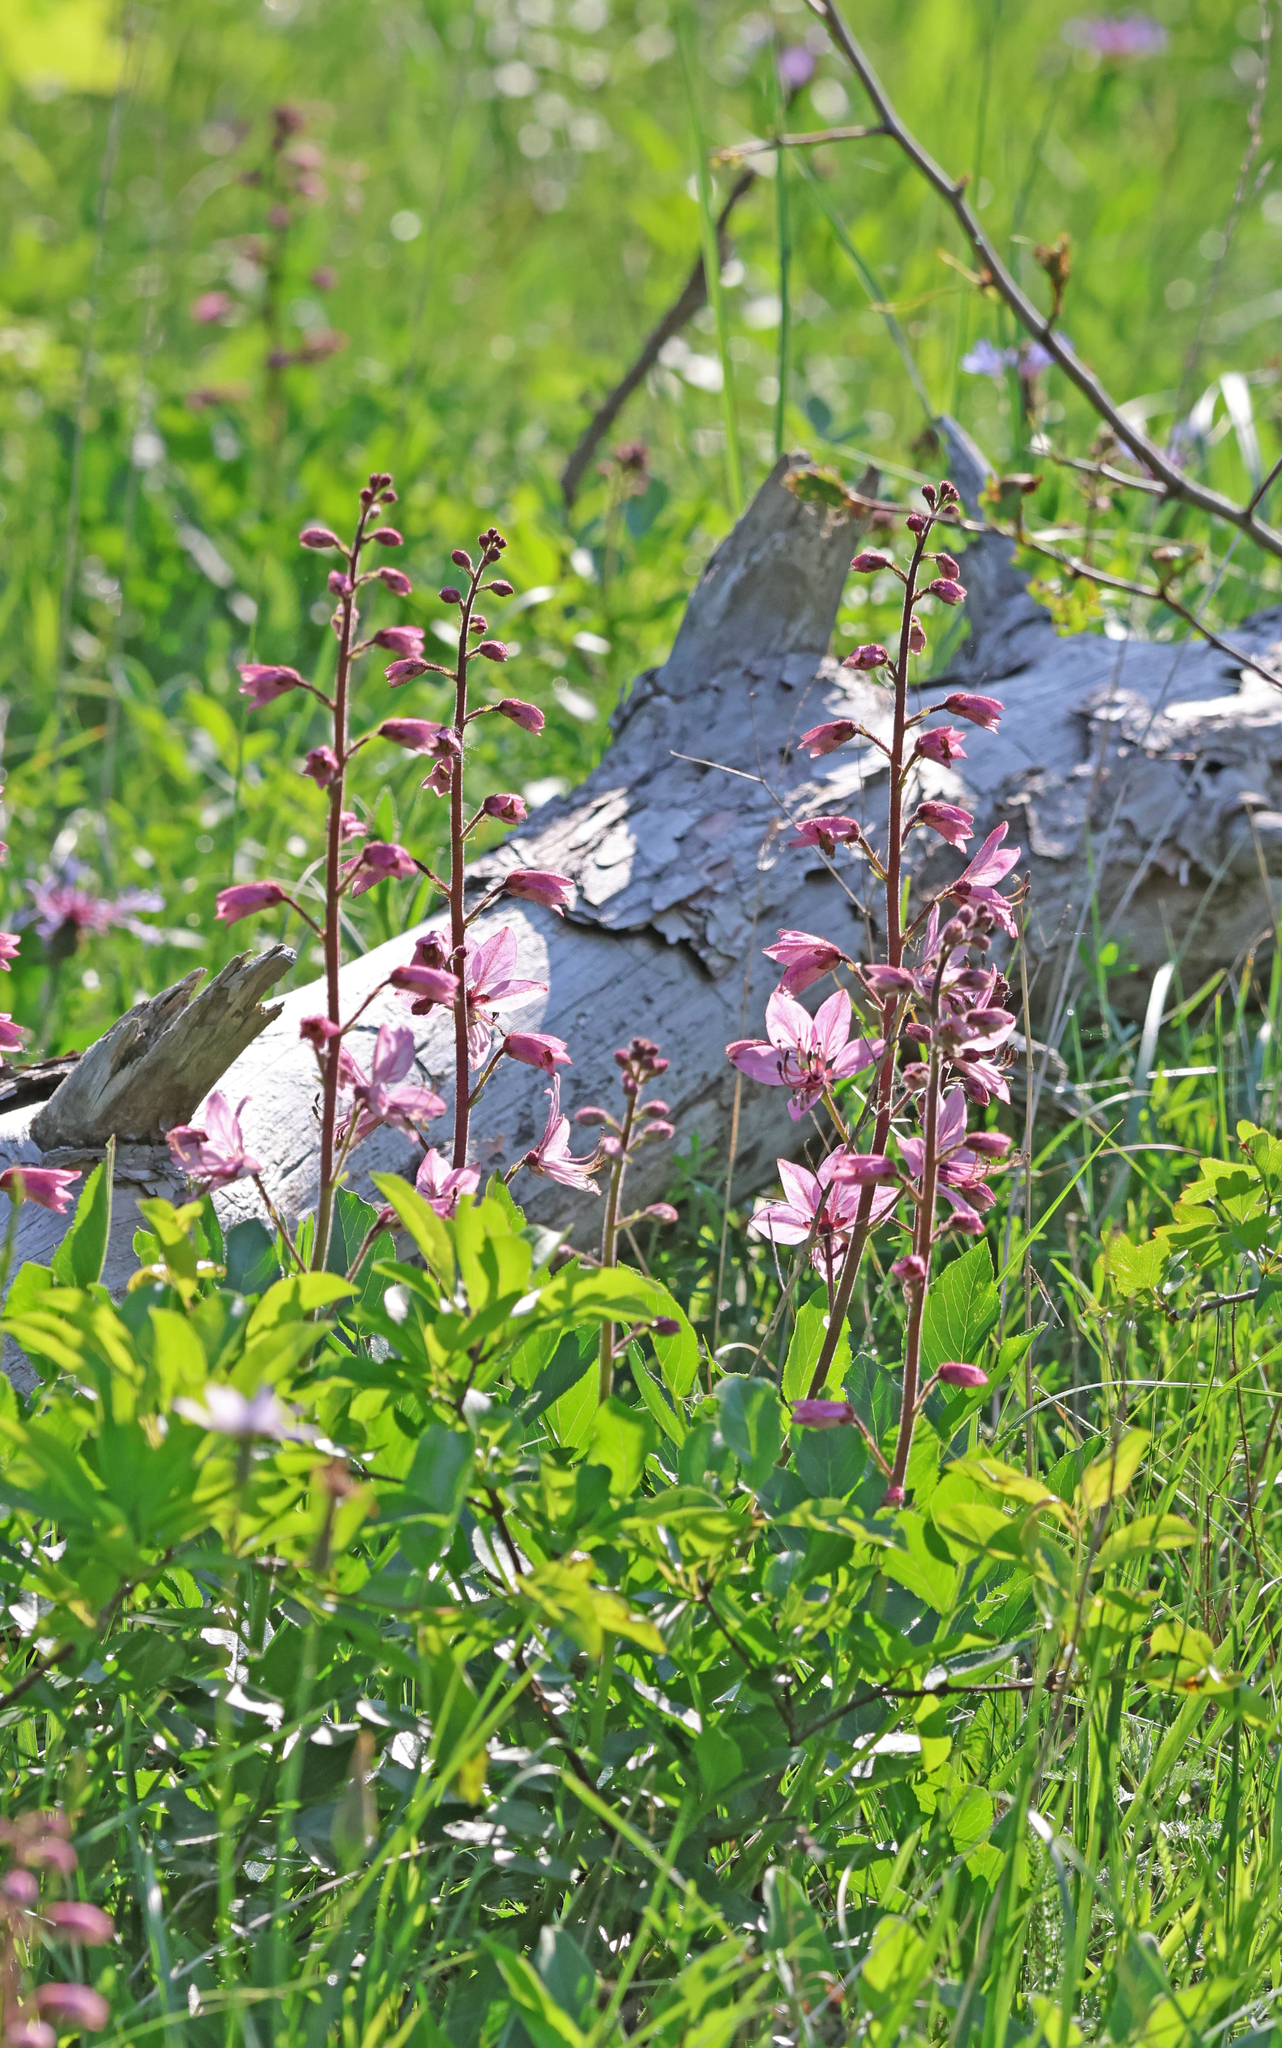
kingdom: Plantae
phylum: Tracheophyta
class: Magnoliopsida
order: Sapindales
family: Rutaceae
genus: Dictamnus
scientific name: Dictamnus albus
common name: Gasplant
